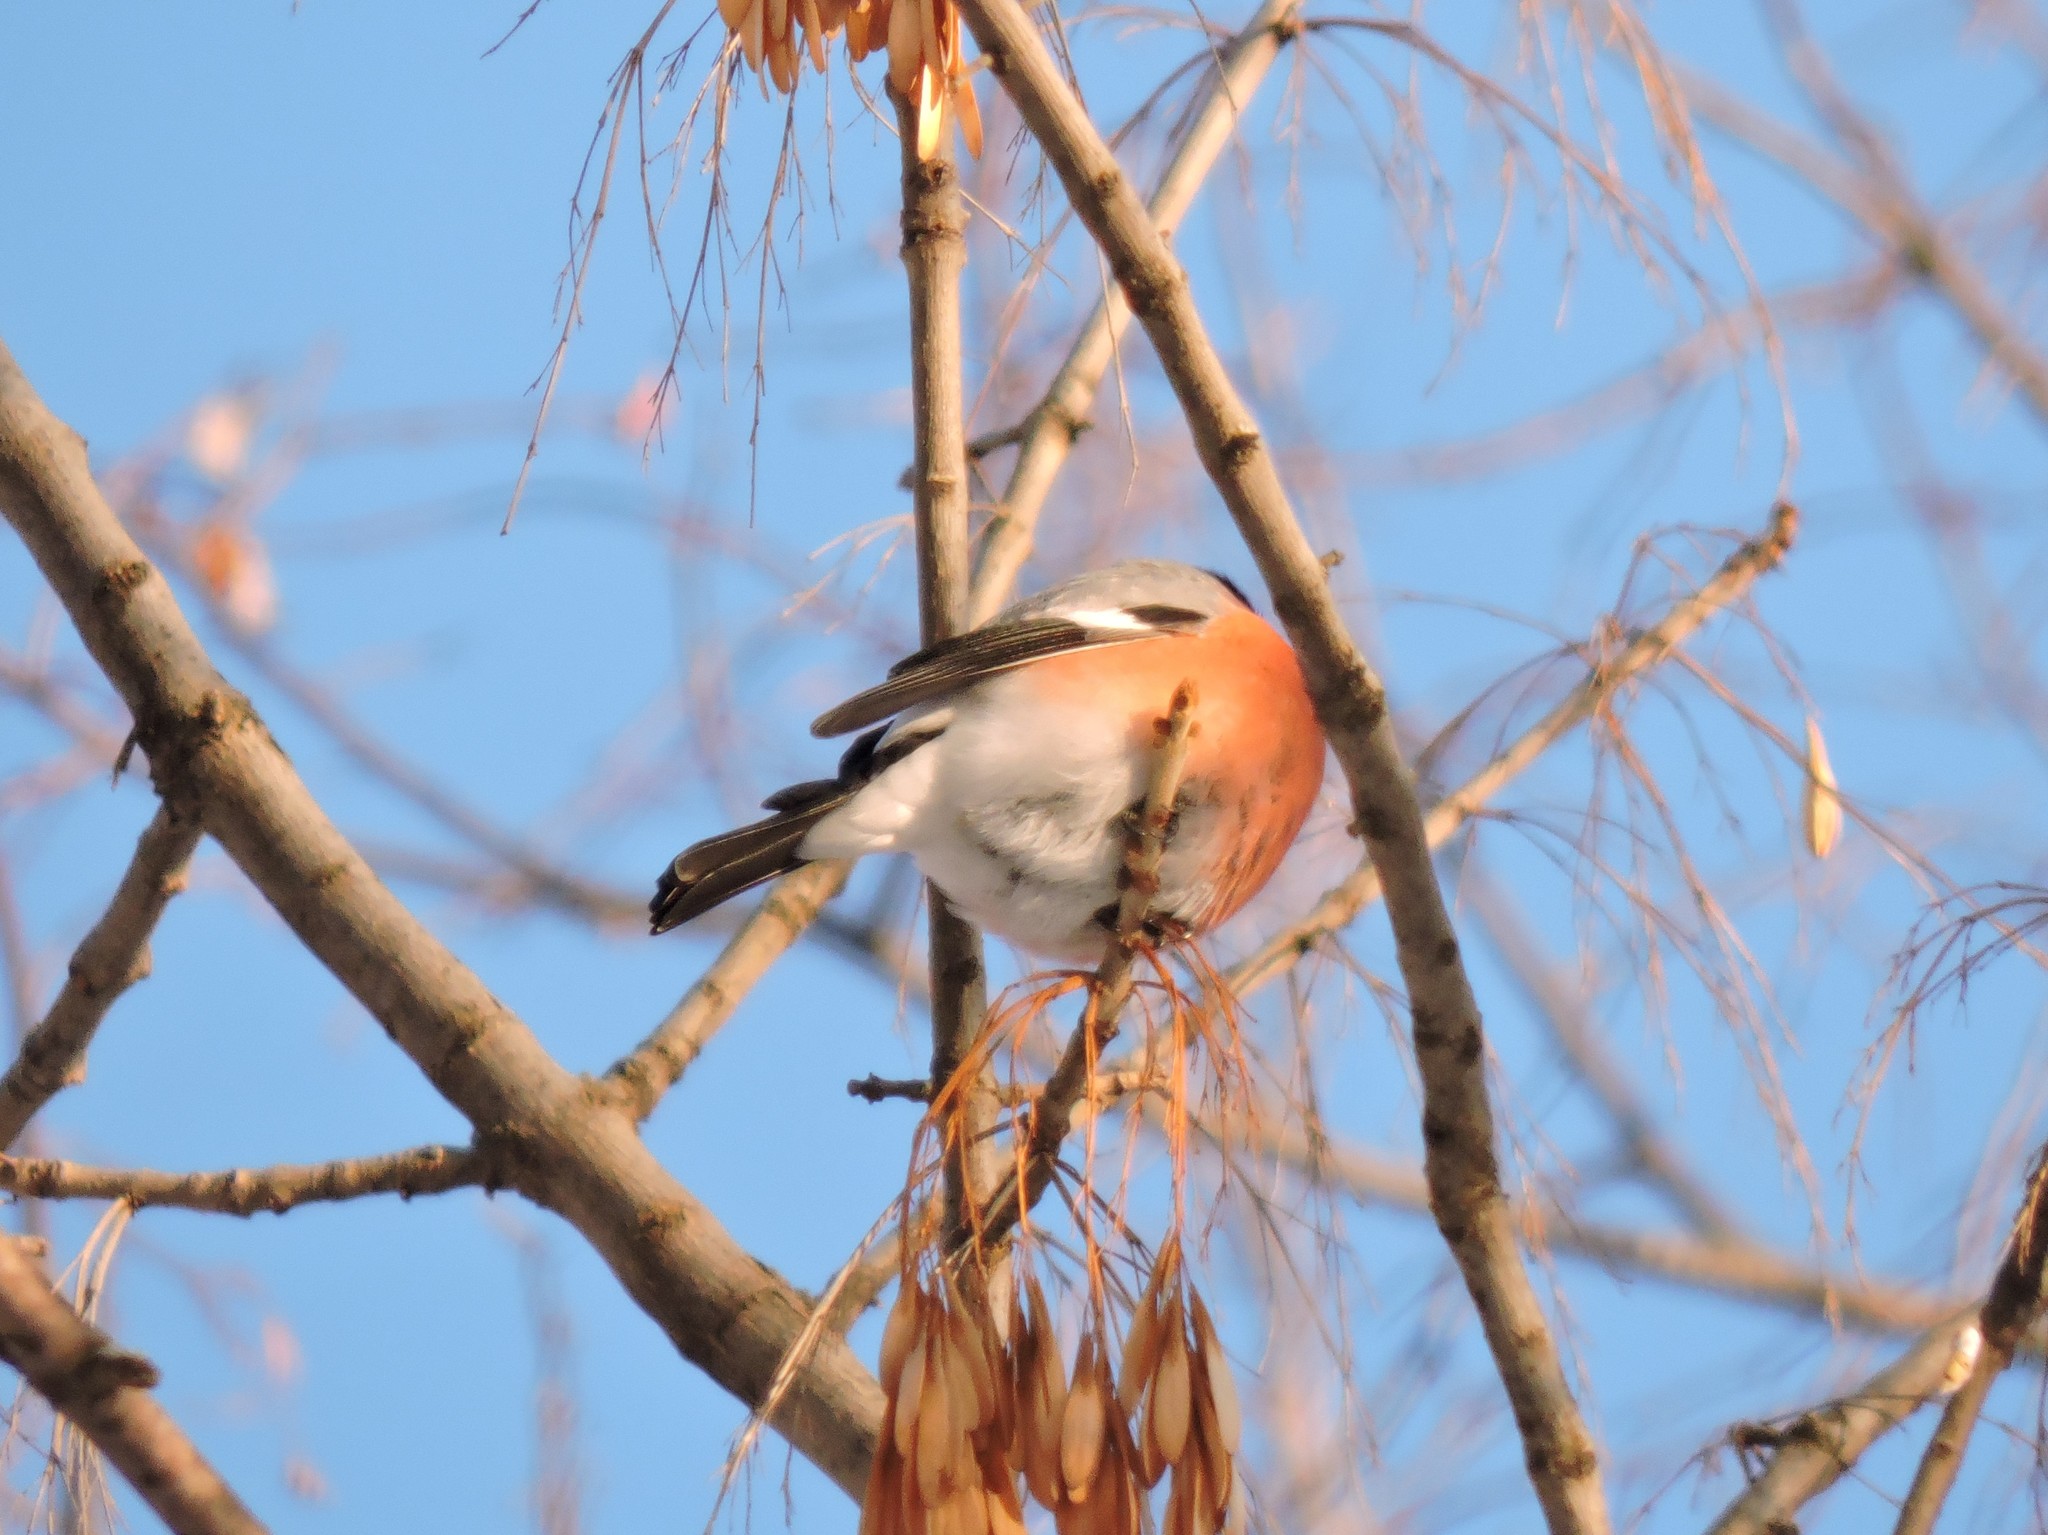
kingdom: Animalia
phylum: Chordata
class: Aves
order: Passeriformes
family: Fringillidae
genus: Pyrrhula
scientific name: Pyrrhula pyrrhula
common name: Eurasian bullfinch
